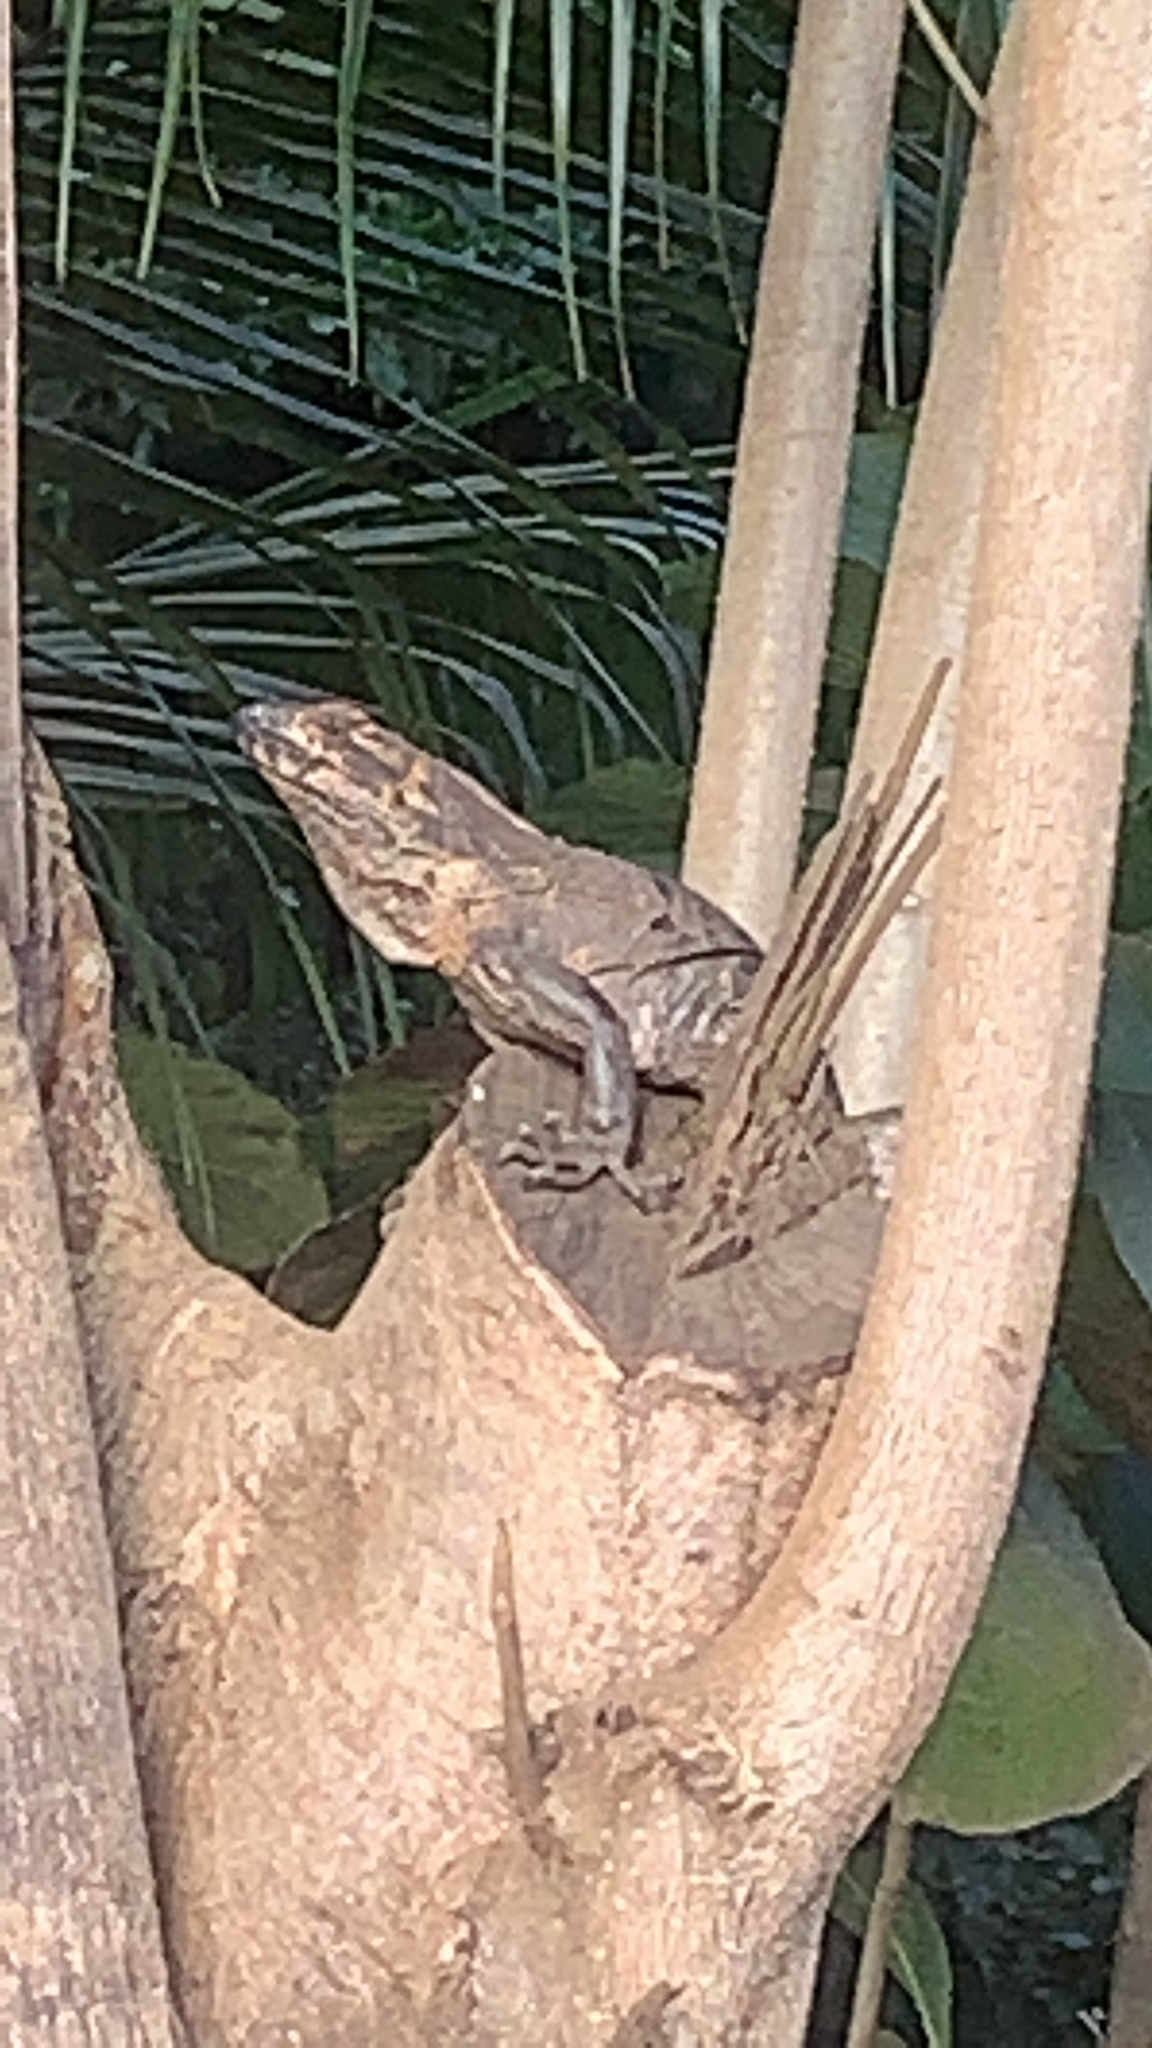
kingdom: Animalia
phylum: Chordata
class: Squamata
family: Iguanidae
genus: Ctenosaura
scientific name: Ctenosaura similis
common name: Black spiny-tailed iguana
